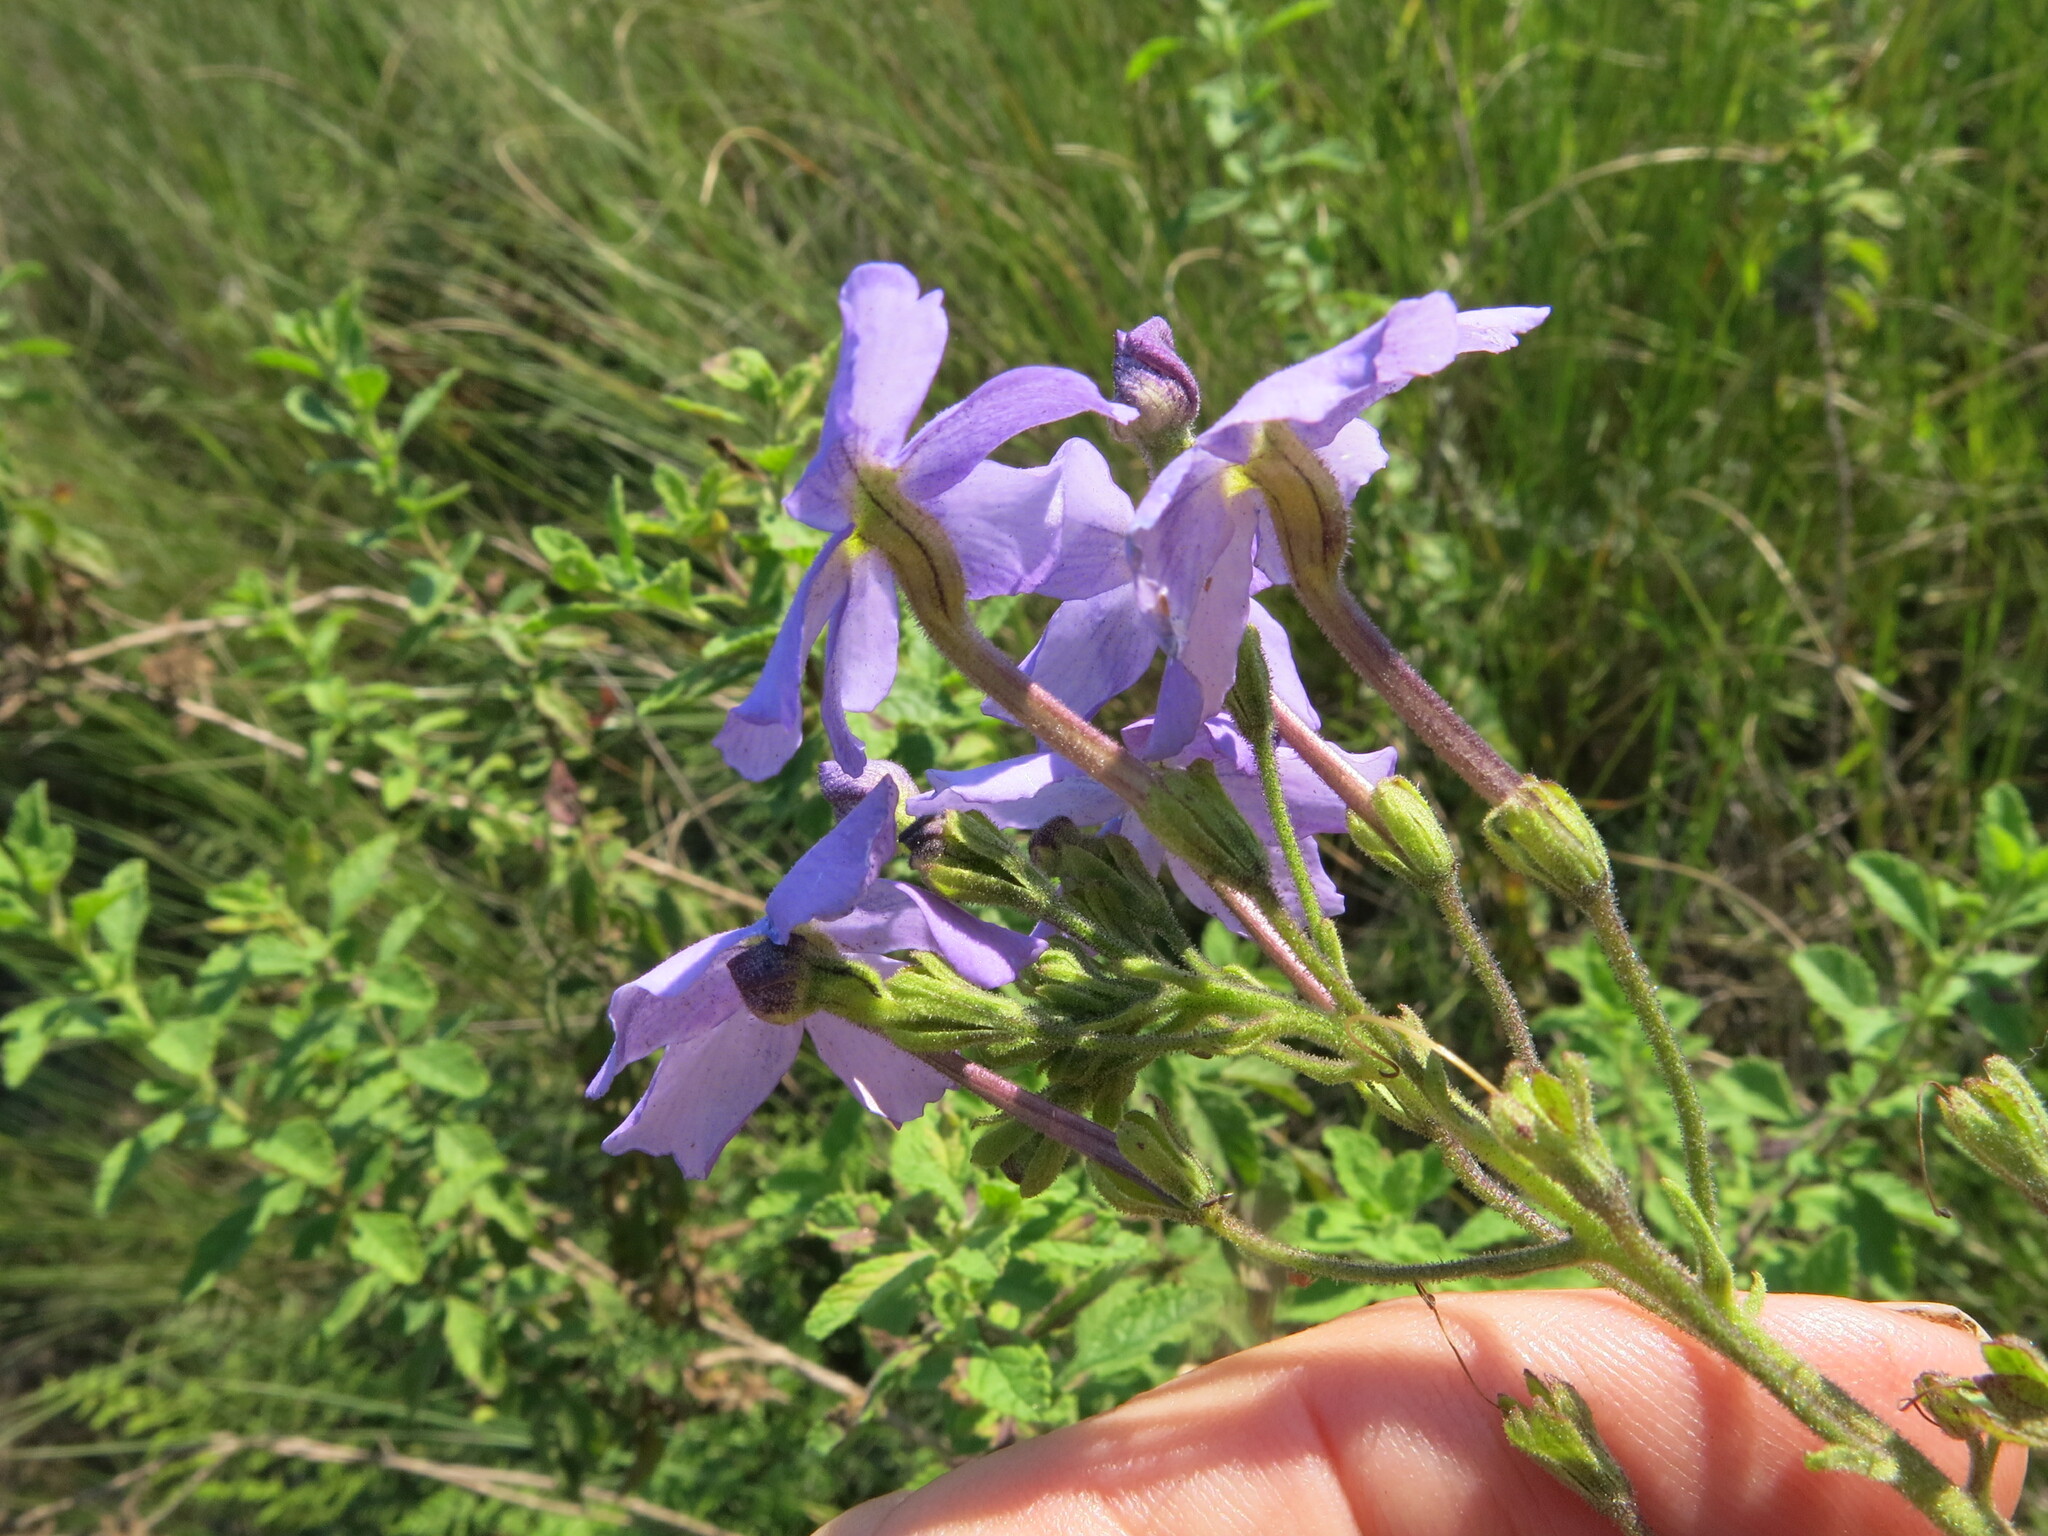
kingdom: Plantae
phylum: Tracheophyta
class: Magnoliopsida
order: Lamiales
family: Scrophulariaceae
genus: Jamesbrittenia
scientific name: Jamesbrittenia grandiflora
